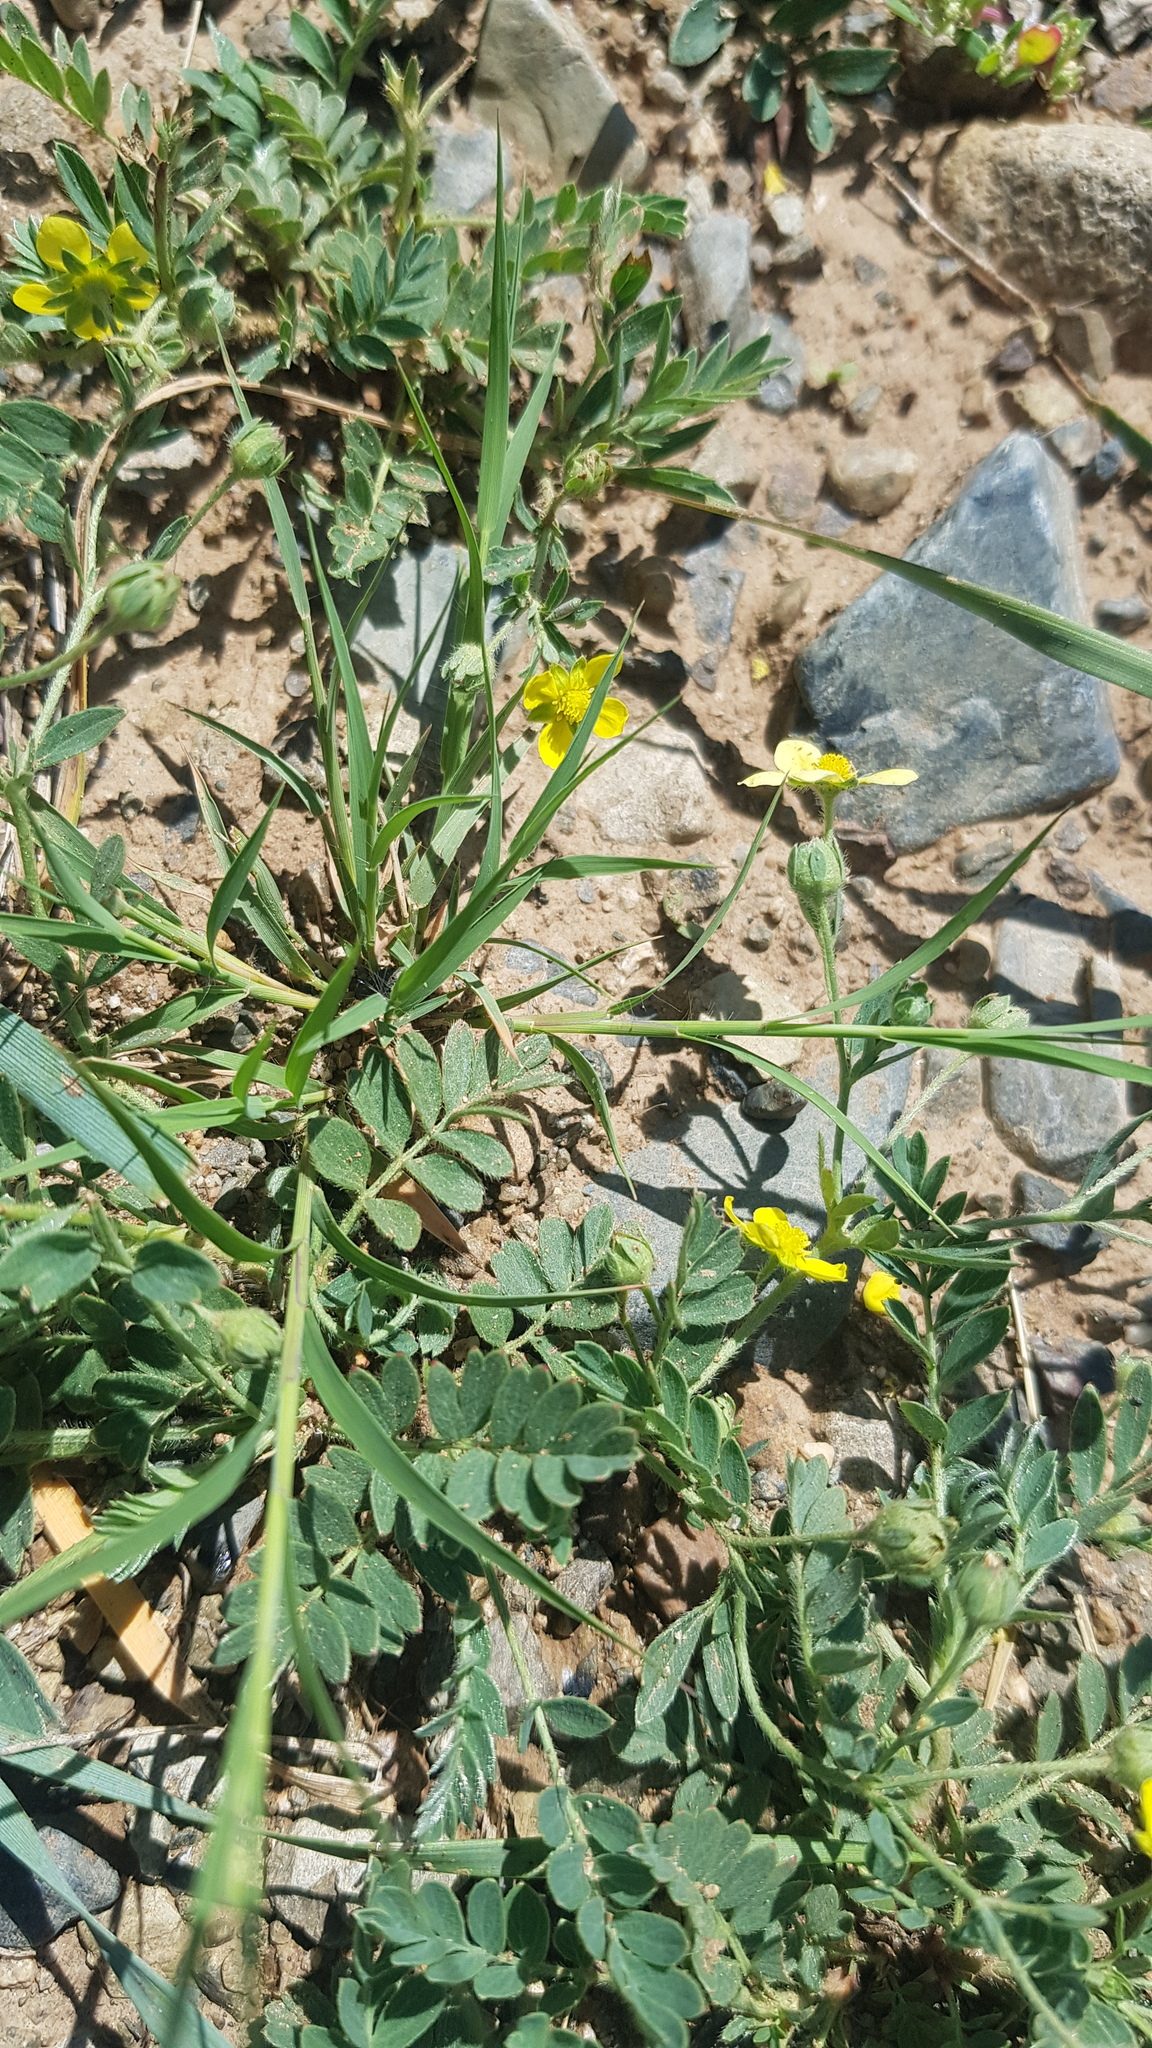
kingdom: Plantae
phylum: Tracheophyta
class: Magnoliopsida
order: Rosales
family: Rosaceae
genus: Sibbaldianthe
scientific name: Sibbaldianthe bifurca
